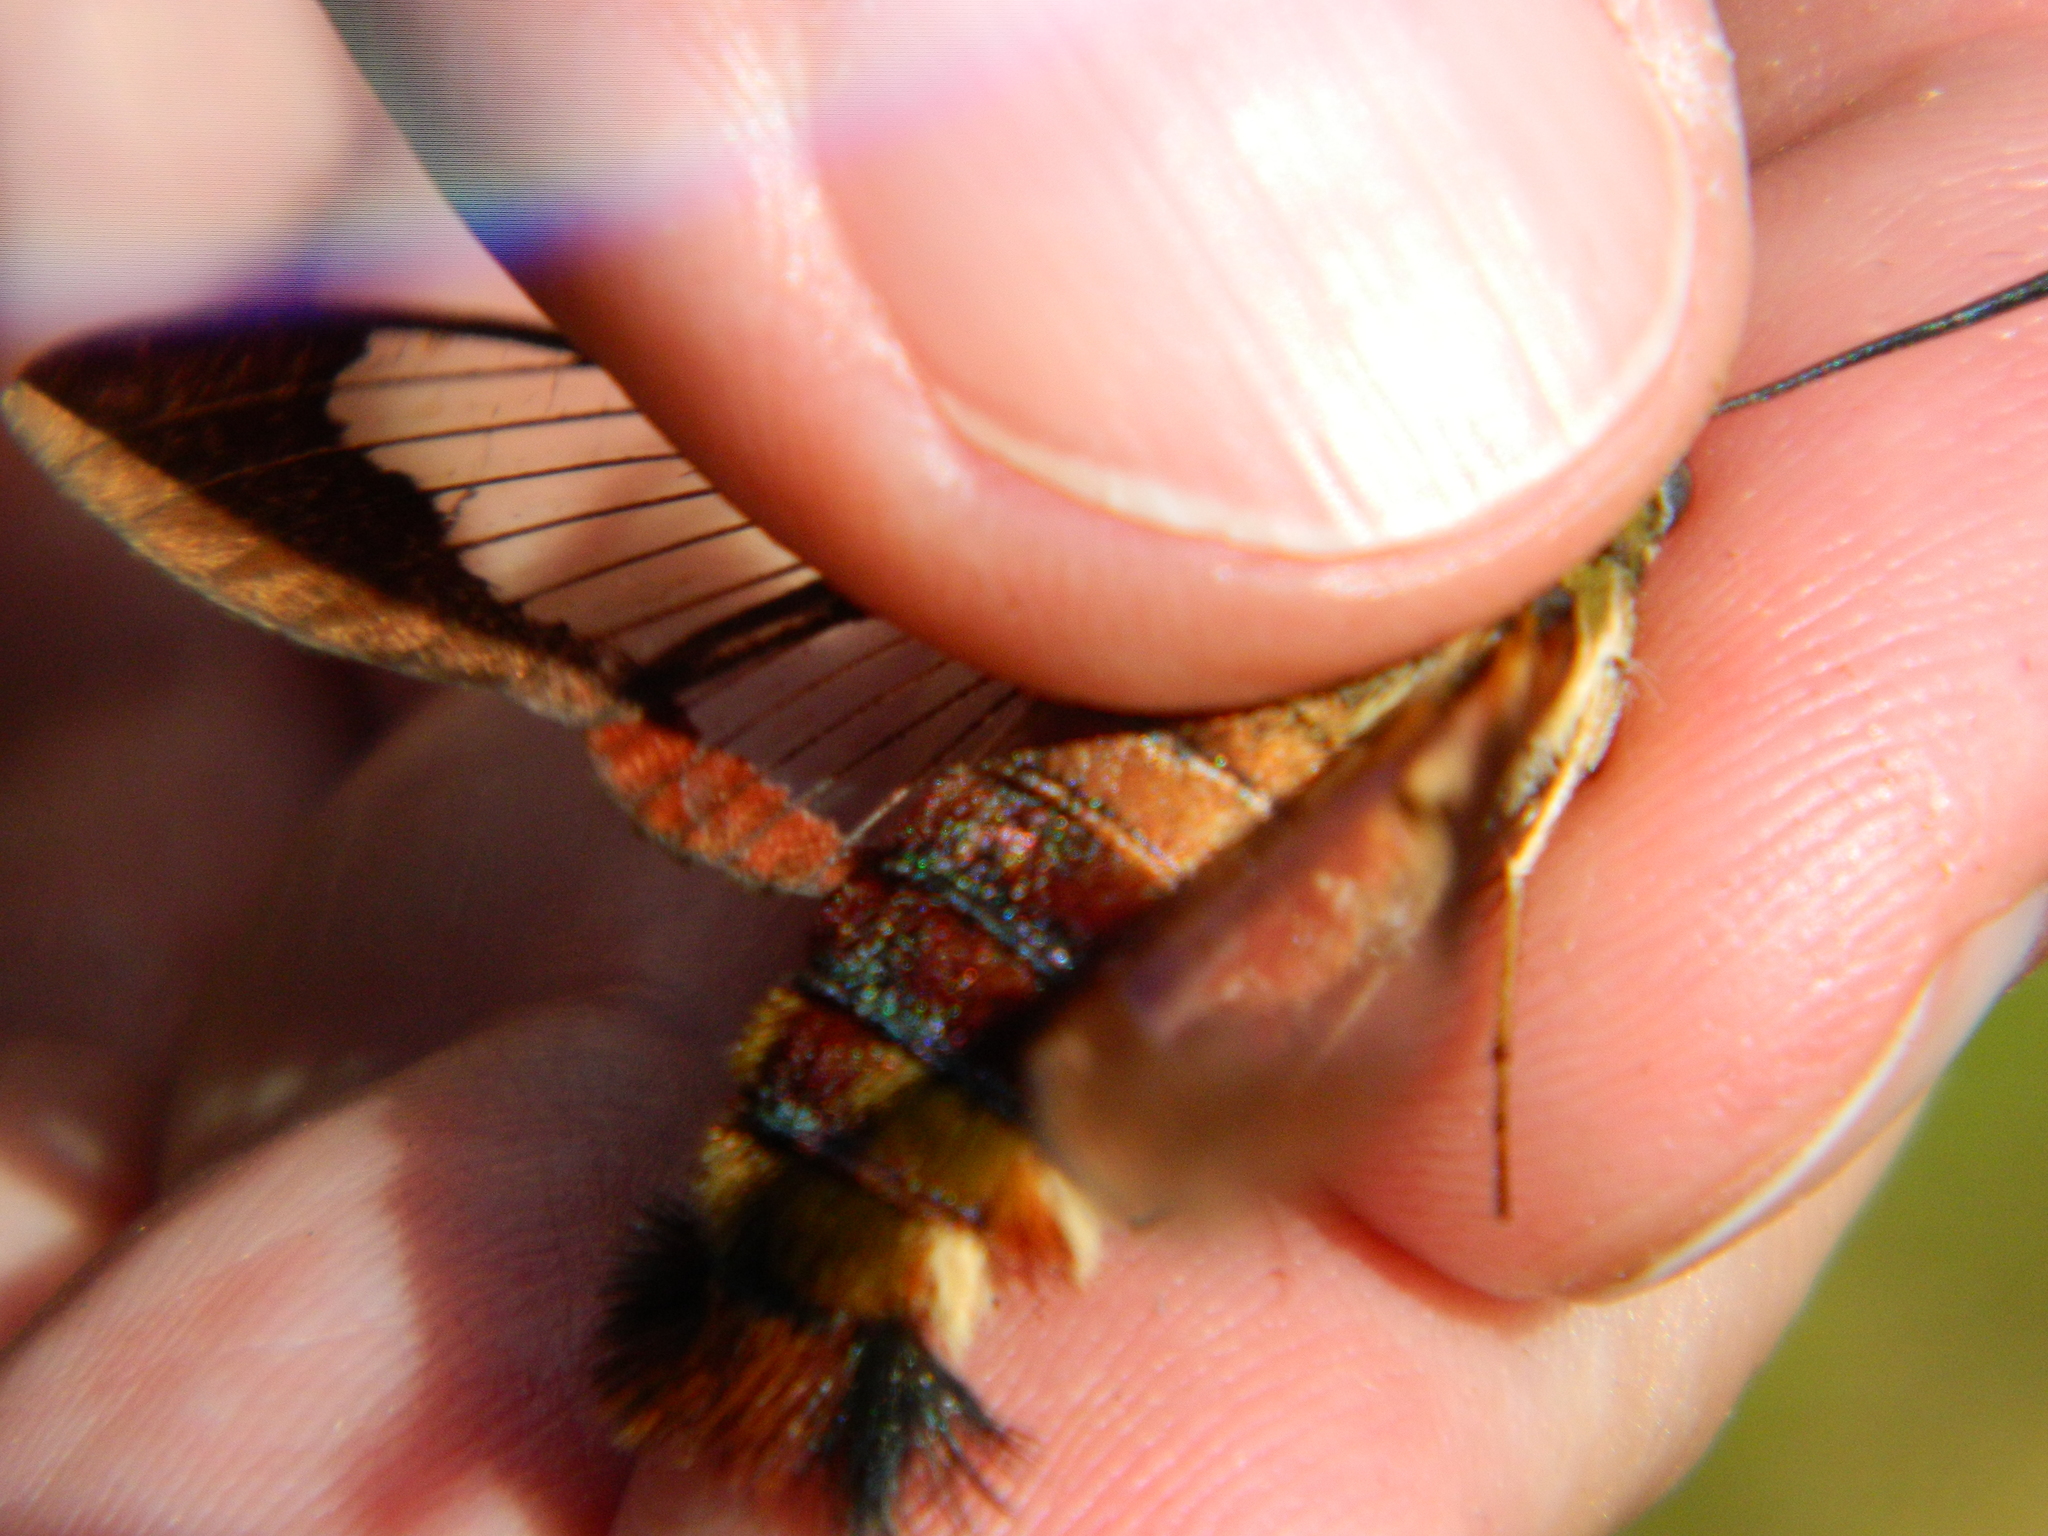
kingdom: Animalia
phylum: Arthropoda
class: Insecta
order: Lepidoptera
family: Sphingidae
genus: Hemaris
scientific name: Hemaris thysbe
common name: Common clear-wing
